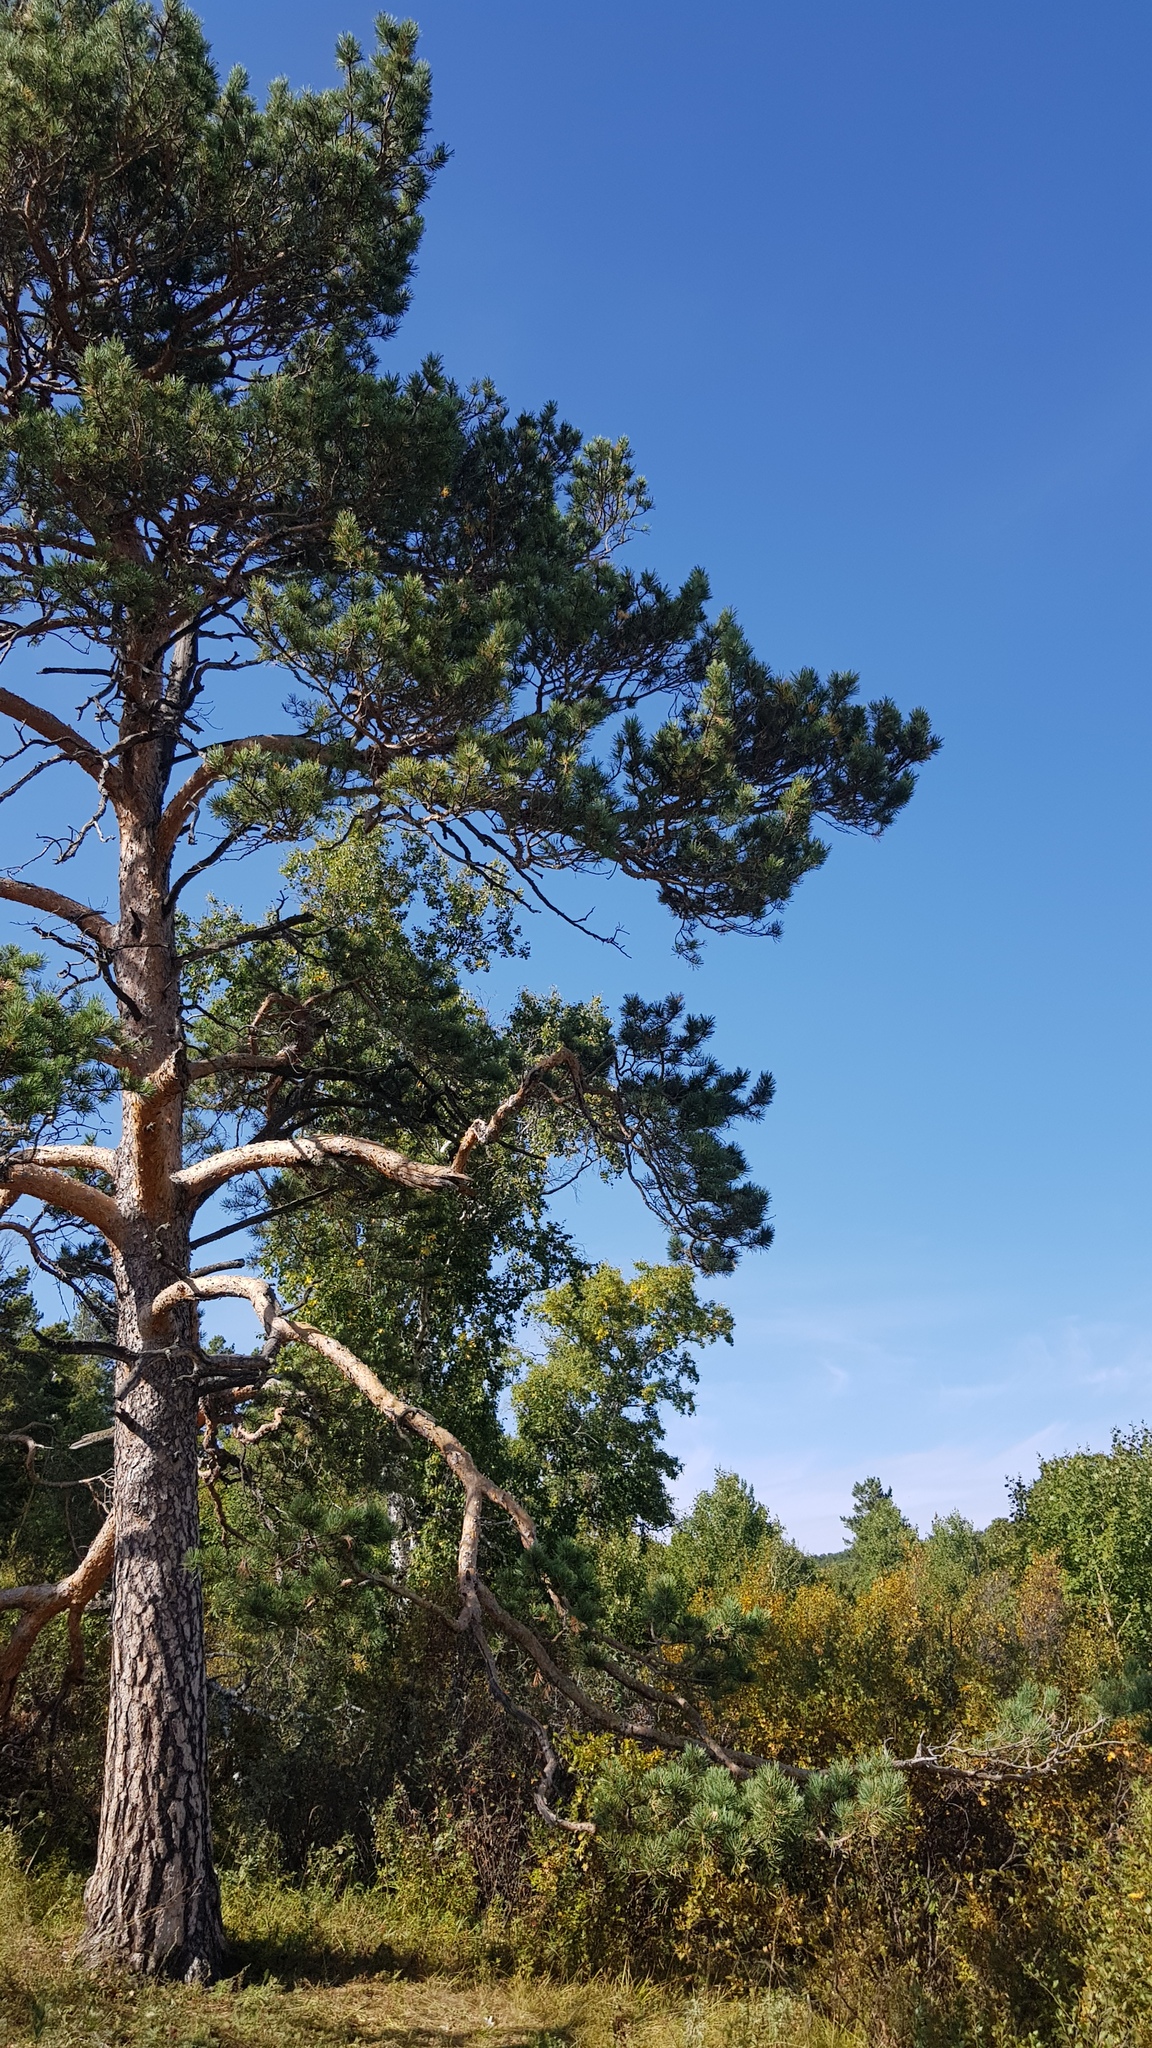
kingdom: Plantae
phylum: Tracheophyta
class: Pinopsida
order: Pinales
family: Pinaceae
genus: Pinus
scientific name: Pinus sylvestris
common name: Scots pine
